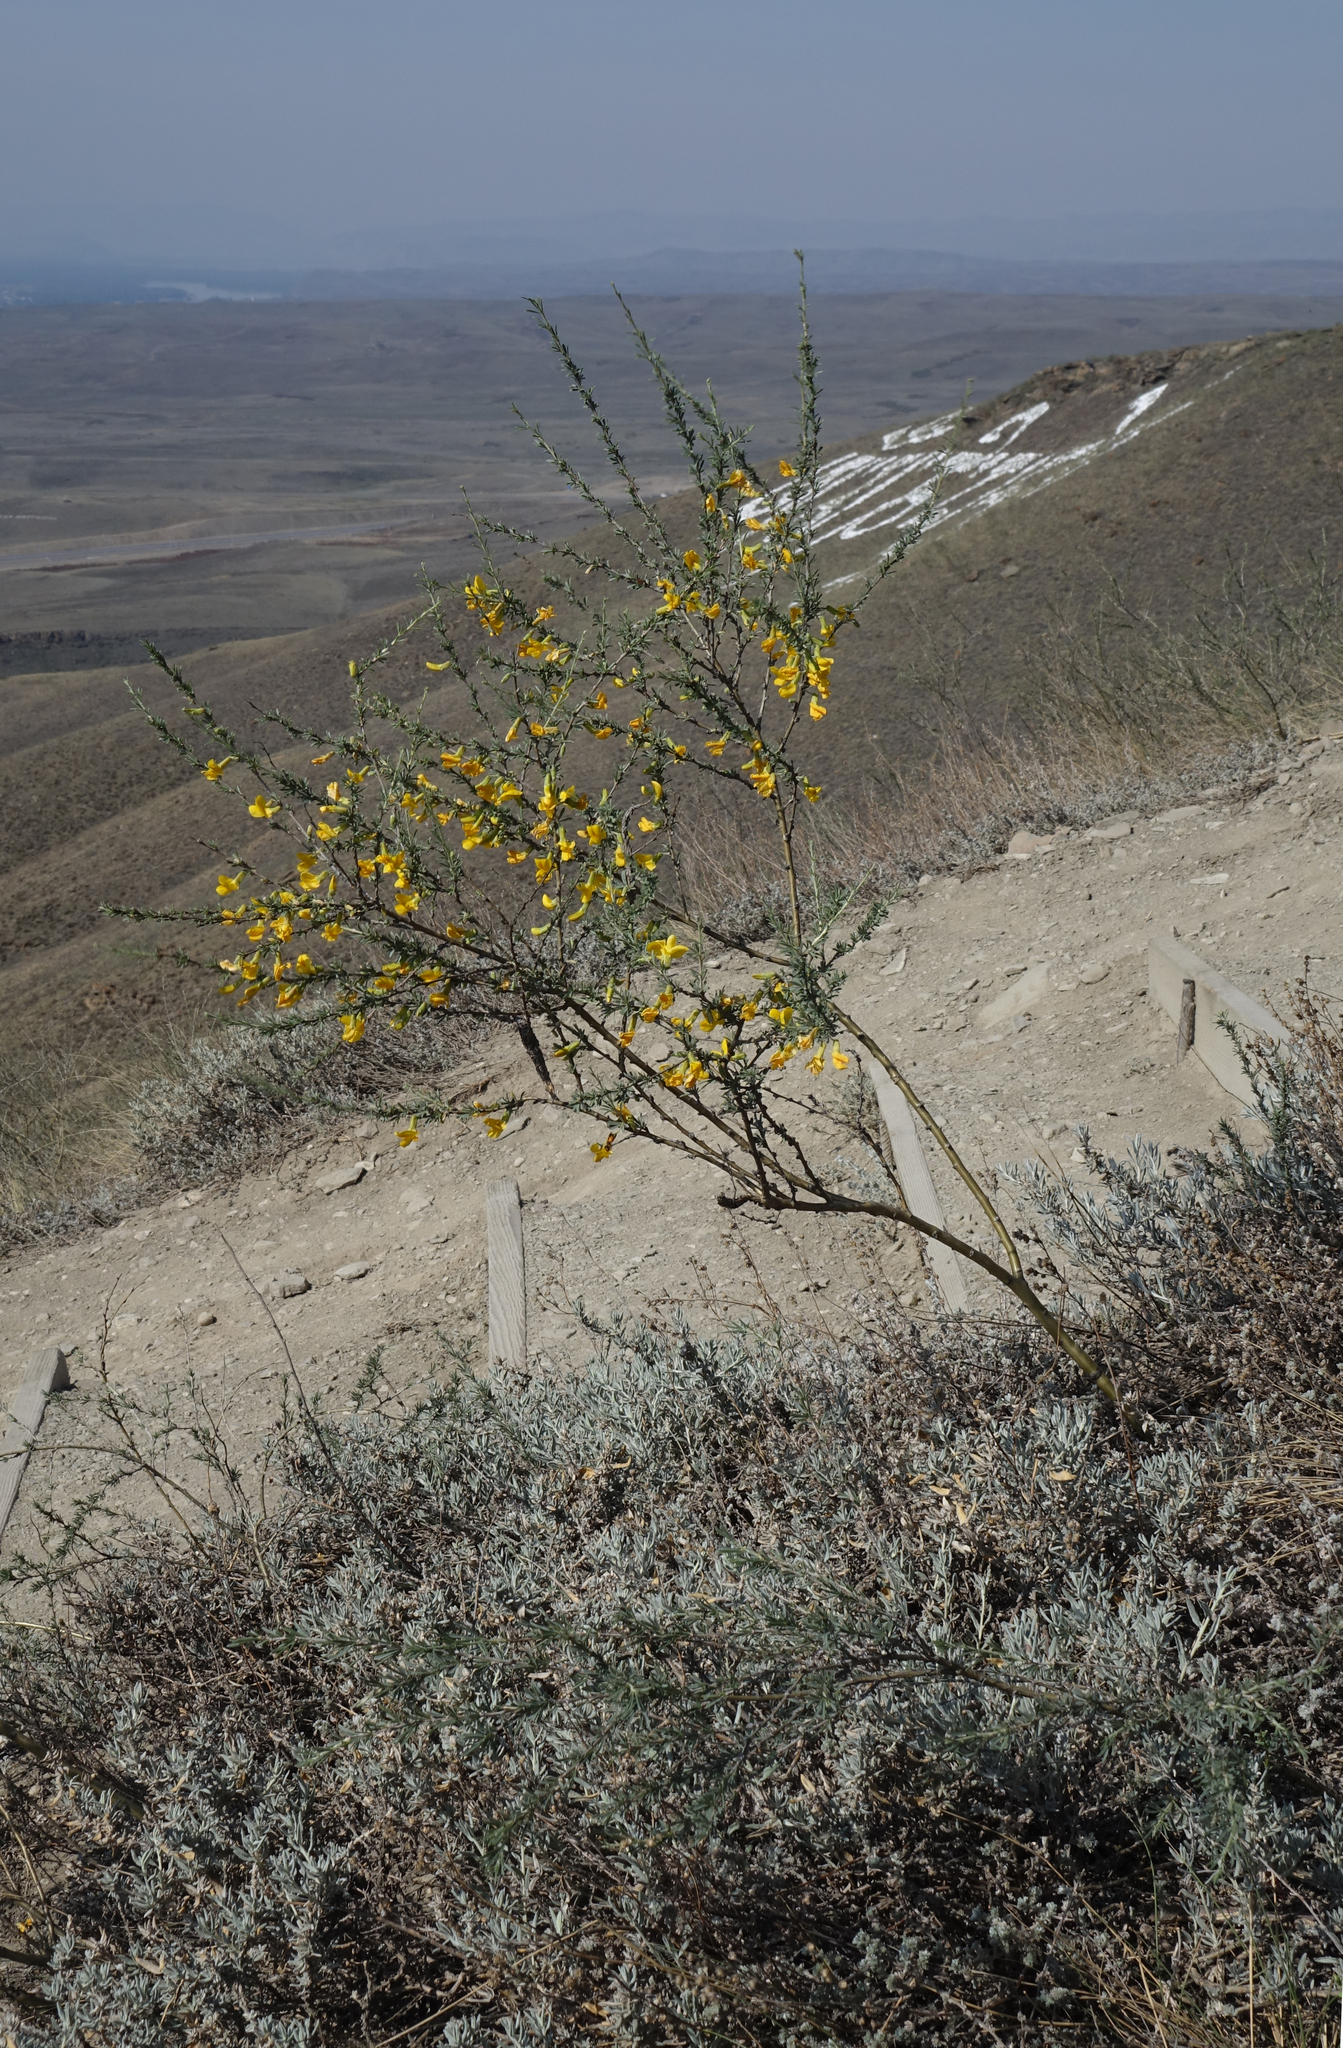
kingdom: Plantae
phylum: Tracheophyta
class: Magnoliopsida
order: Fabales
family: Fabaceae
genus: Caragana
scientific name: Caragana pygmaea
